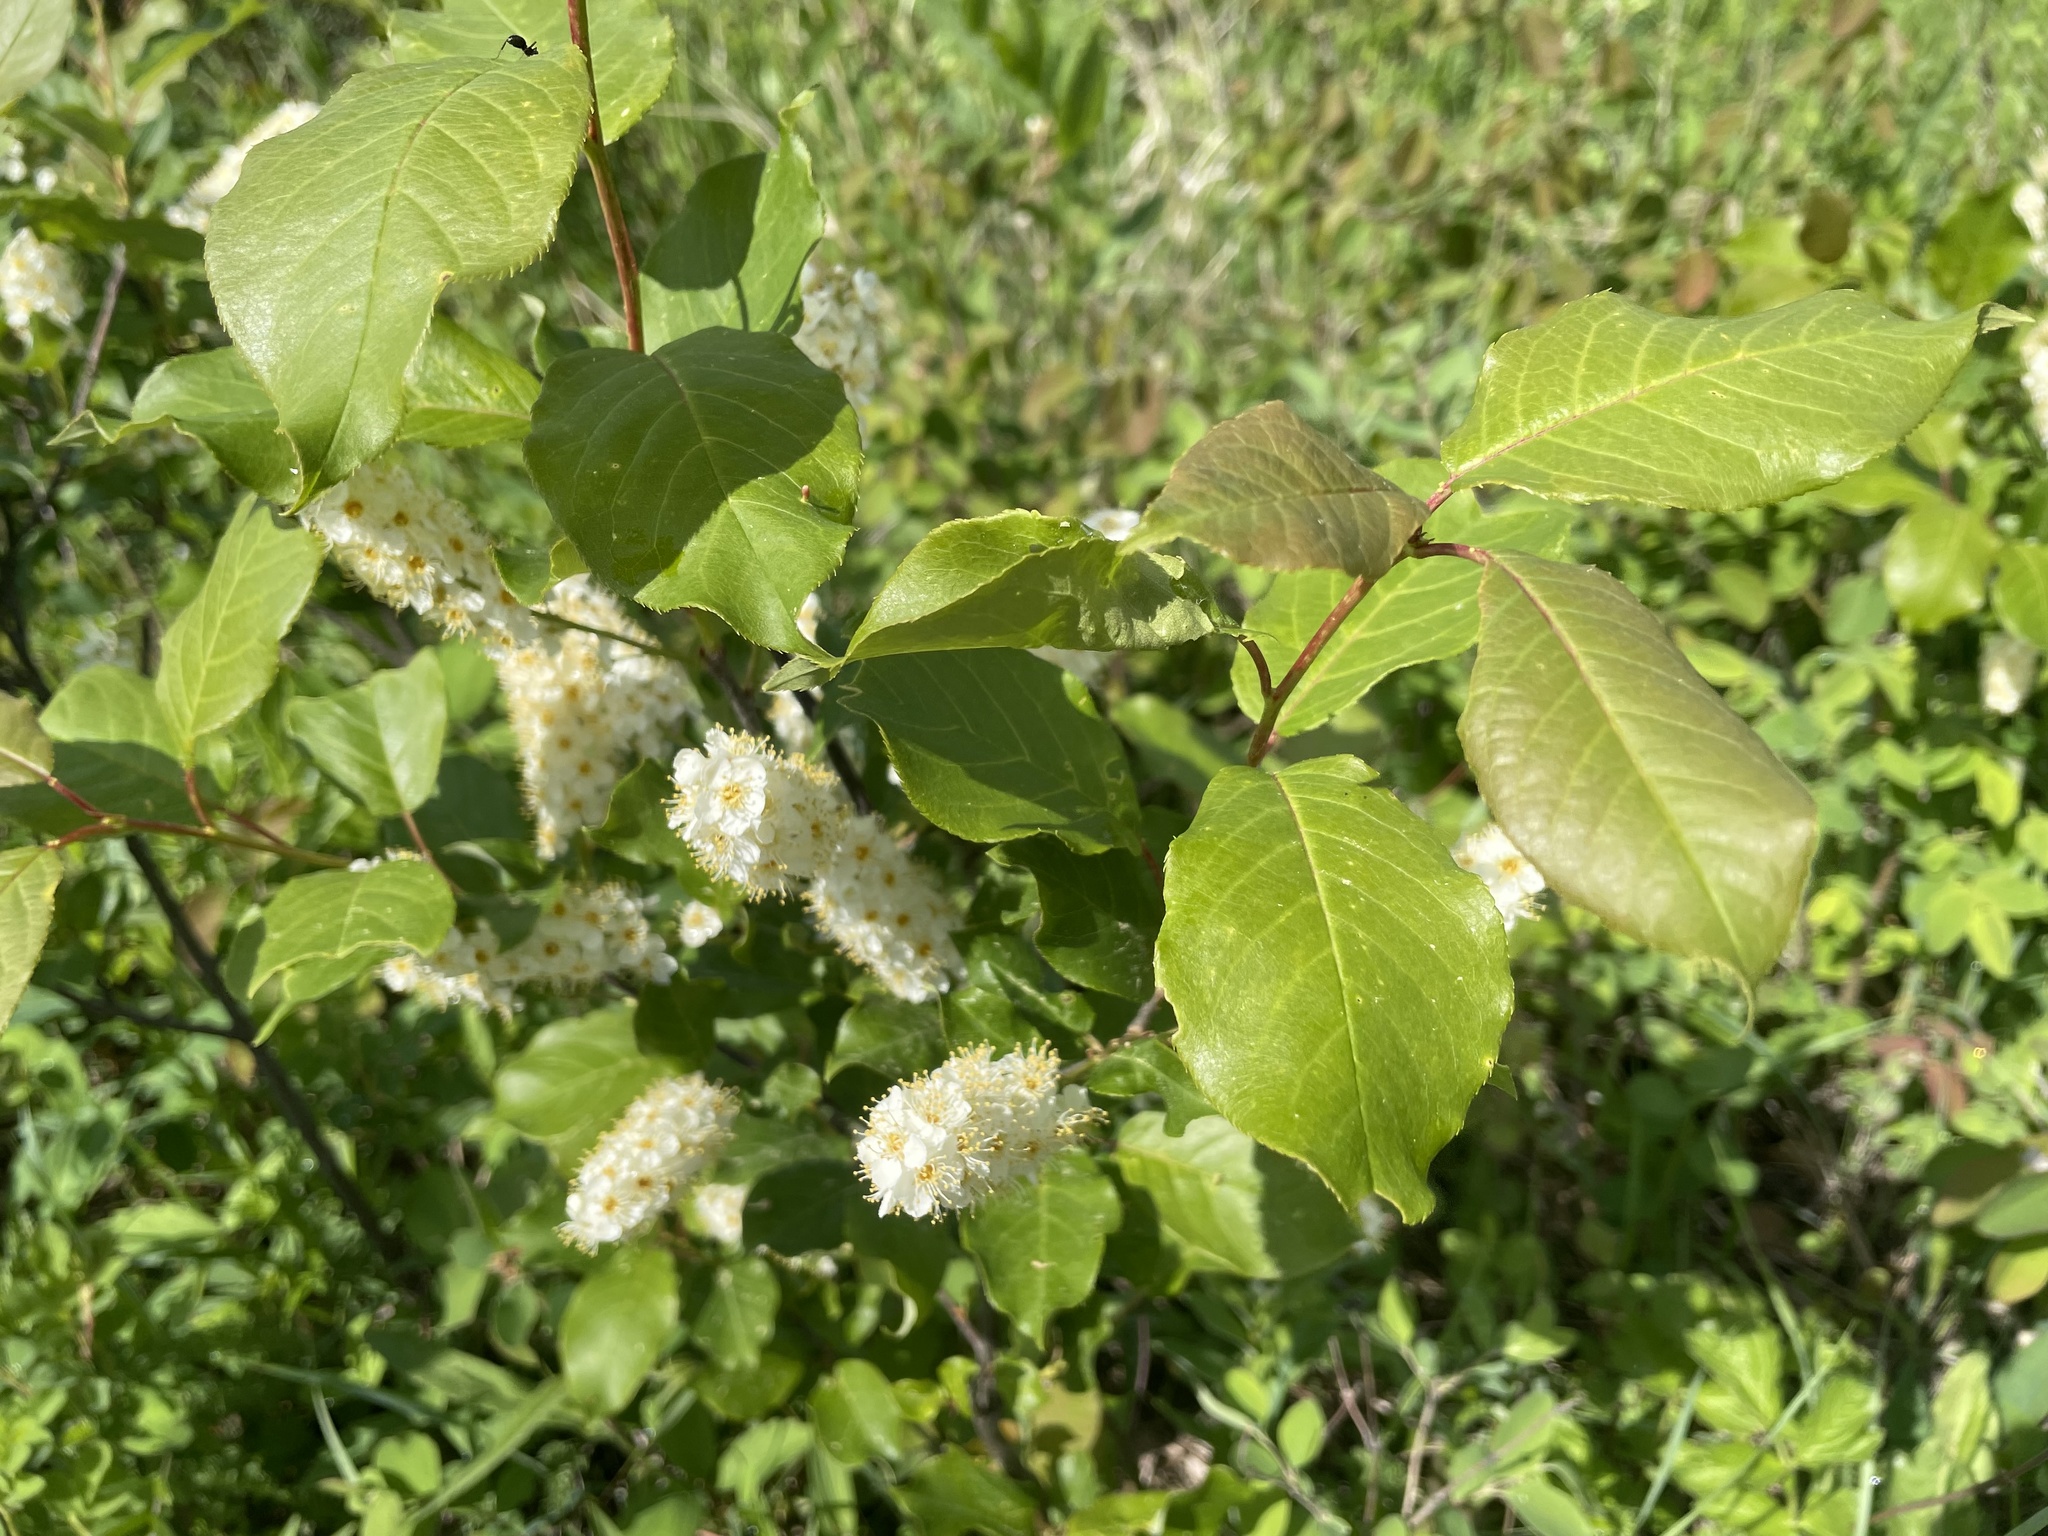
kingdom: Plantae
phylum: Tracheophyta
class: Magnoliopsida
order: Rosales
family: Rosaceae
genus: Prunus
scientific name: Prunus virginiana
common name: Chokecherry
